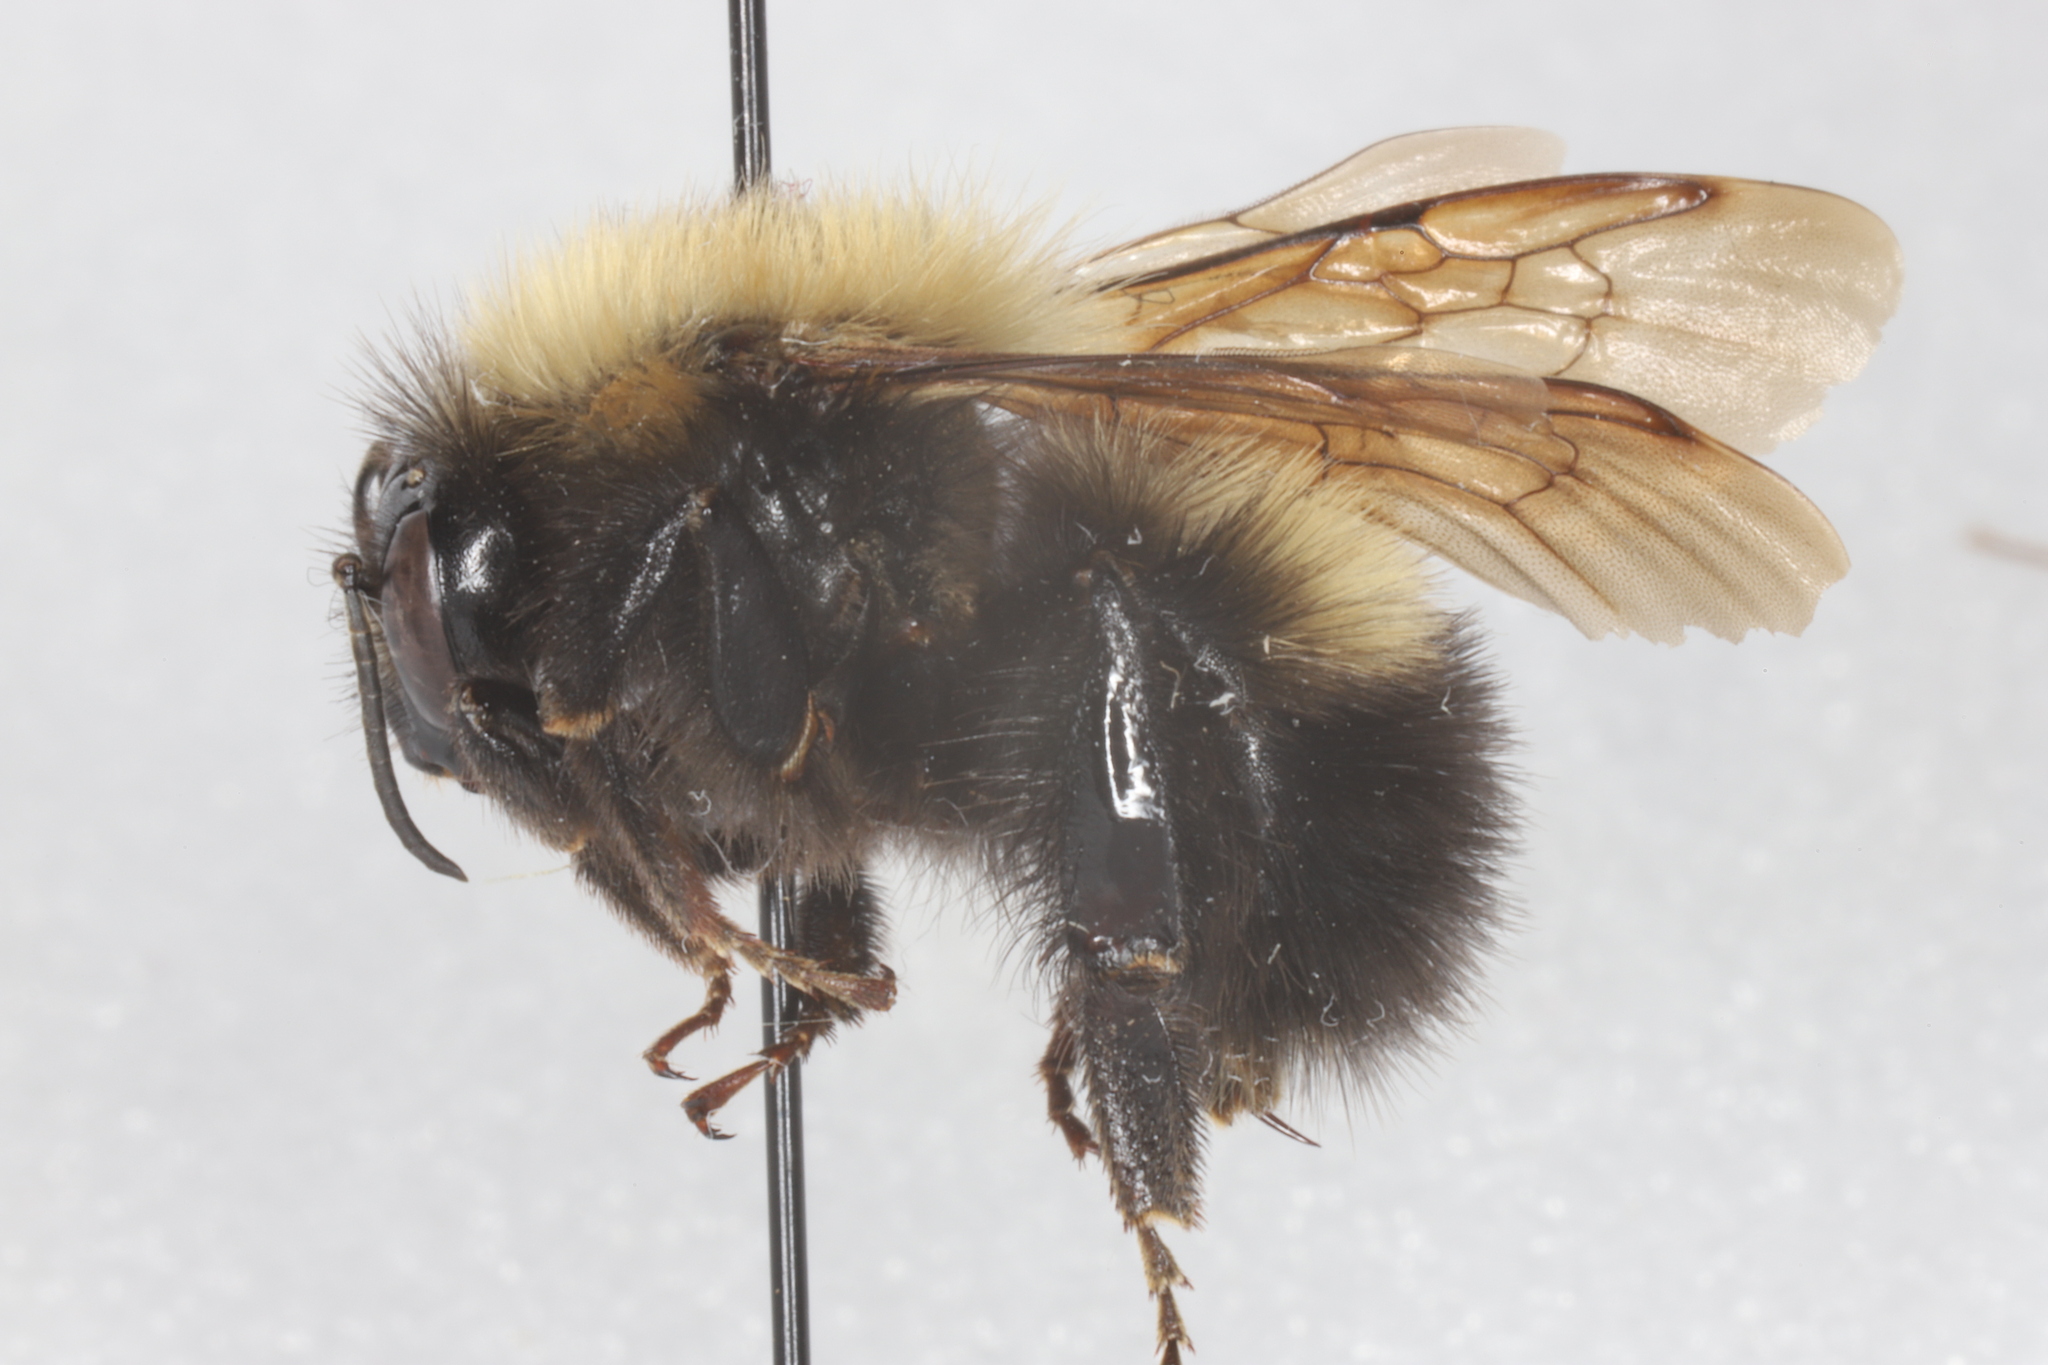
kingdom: Animalia
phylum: Arthropoda
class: Insecta
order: Hymenoptera
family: Apidae
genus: Bombus
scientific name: Bombus perplexus
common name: Confusing bumble bee
